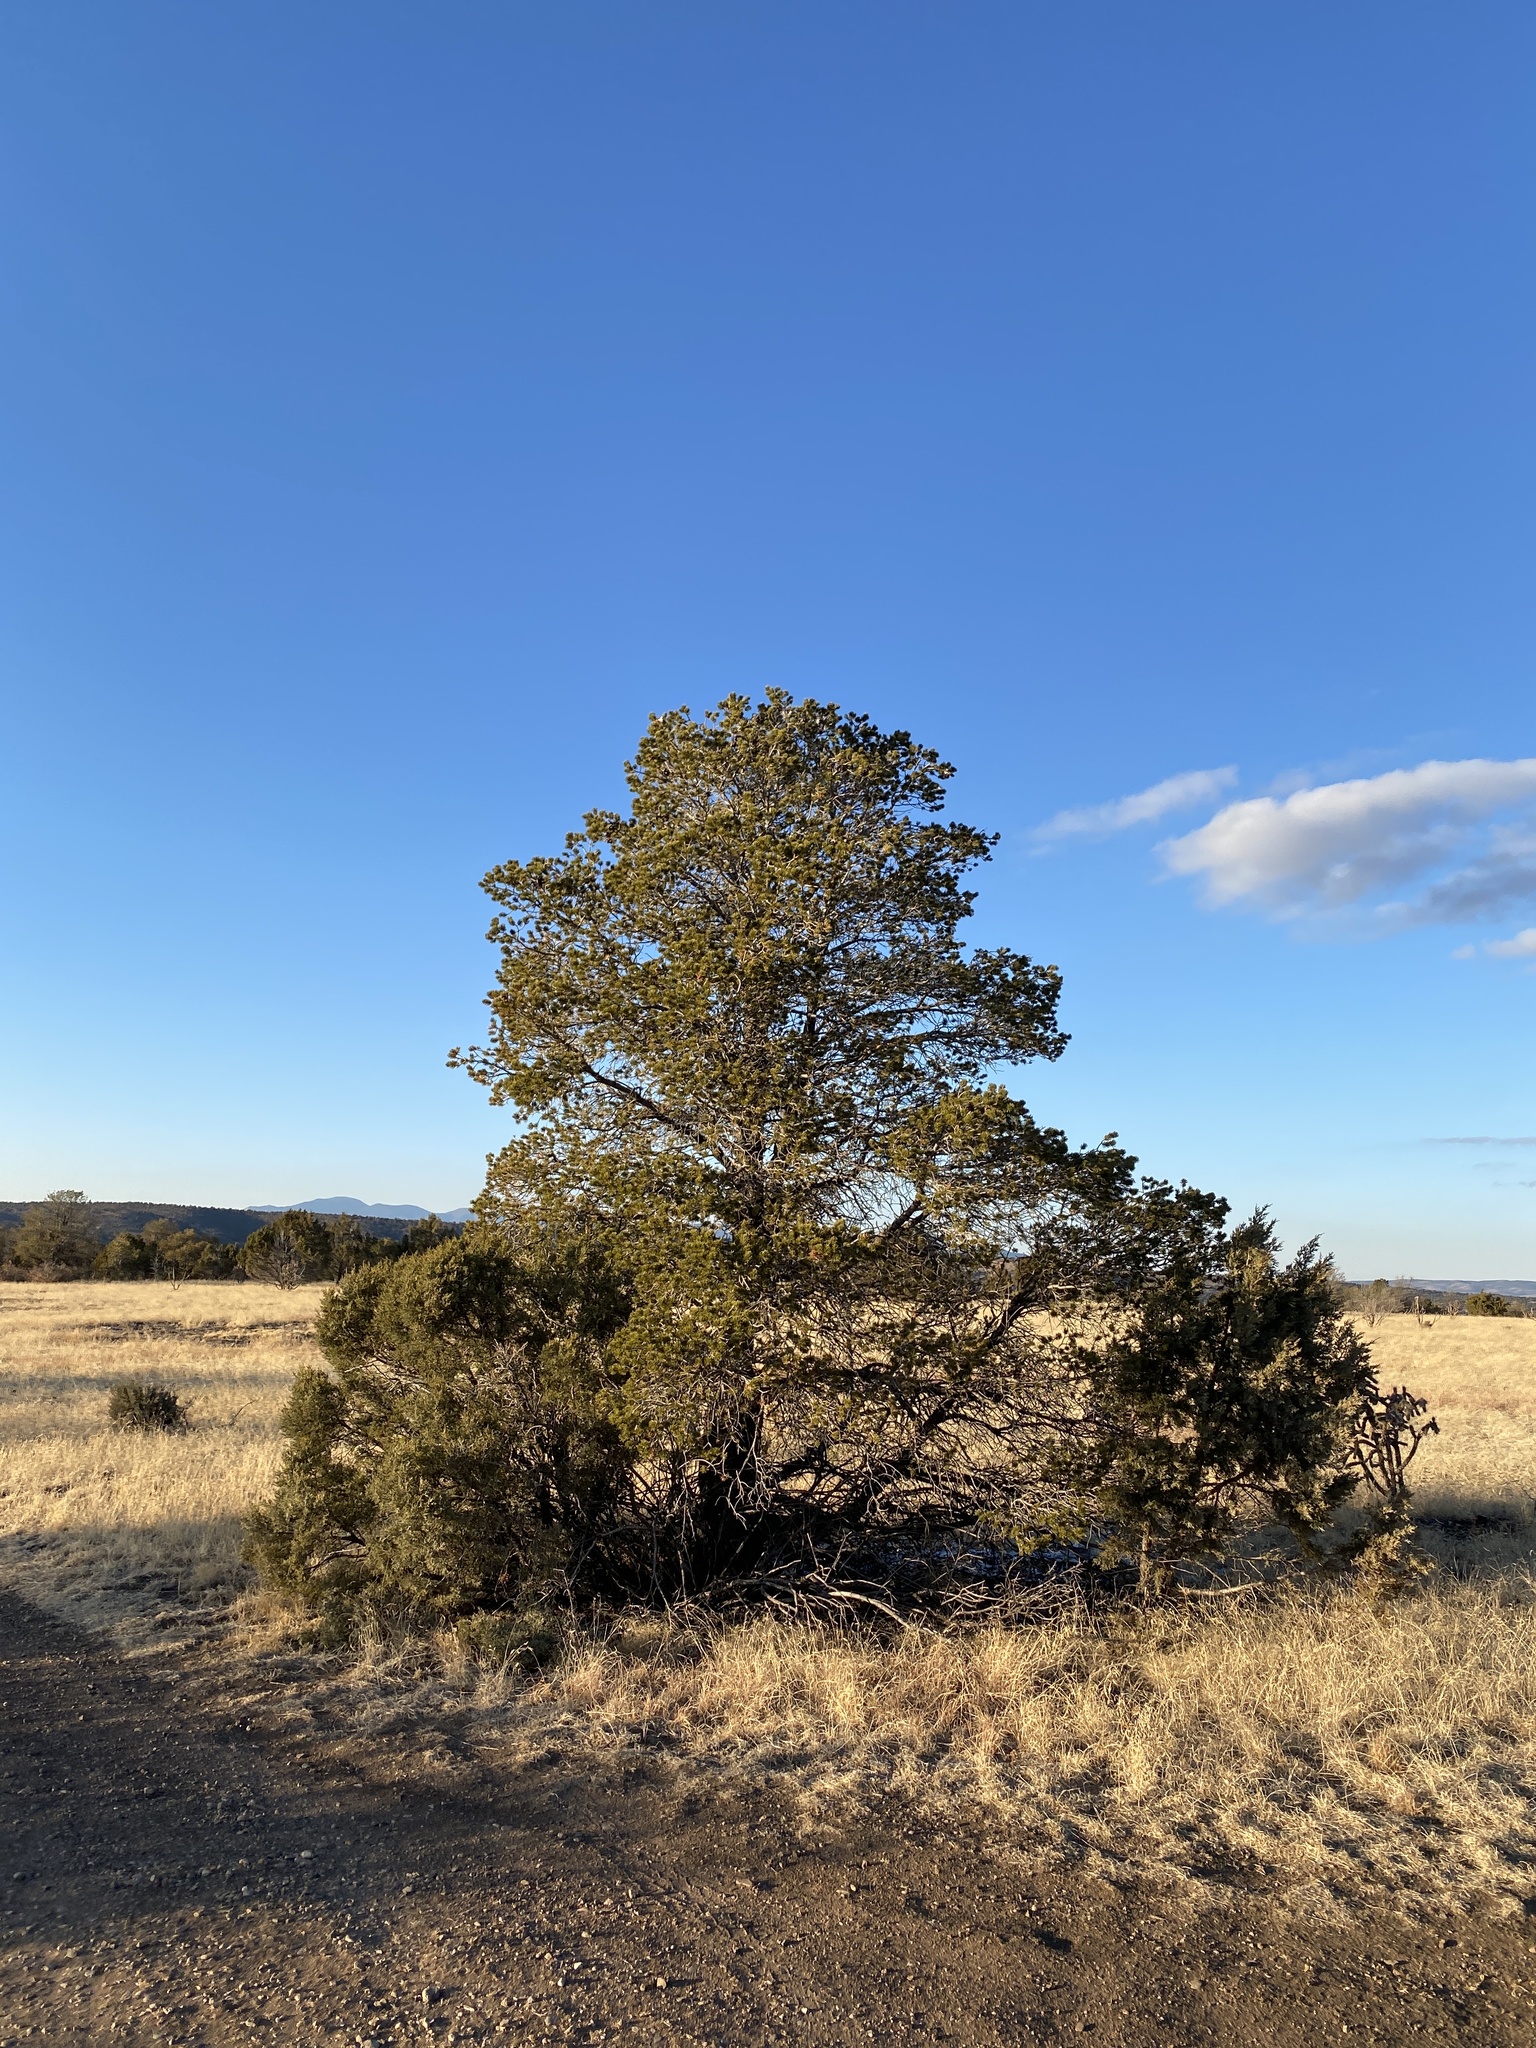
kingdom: Plantae
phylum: Tracheophyta
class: Pinopsida
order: Pinales
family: Pinaceae
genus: Pinus
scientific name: Pinus edulis
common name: Colorado pinyon
